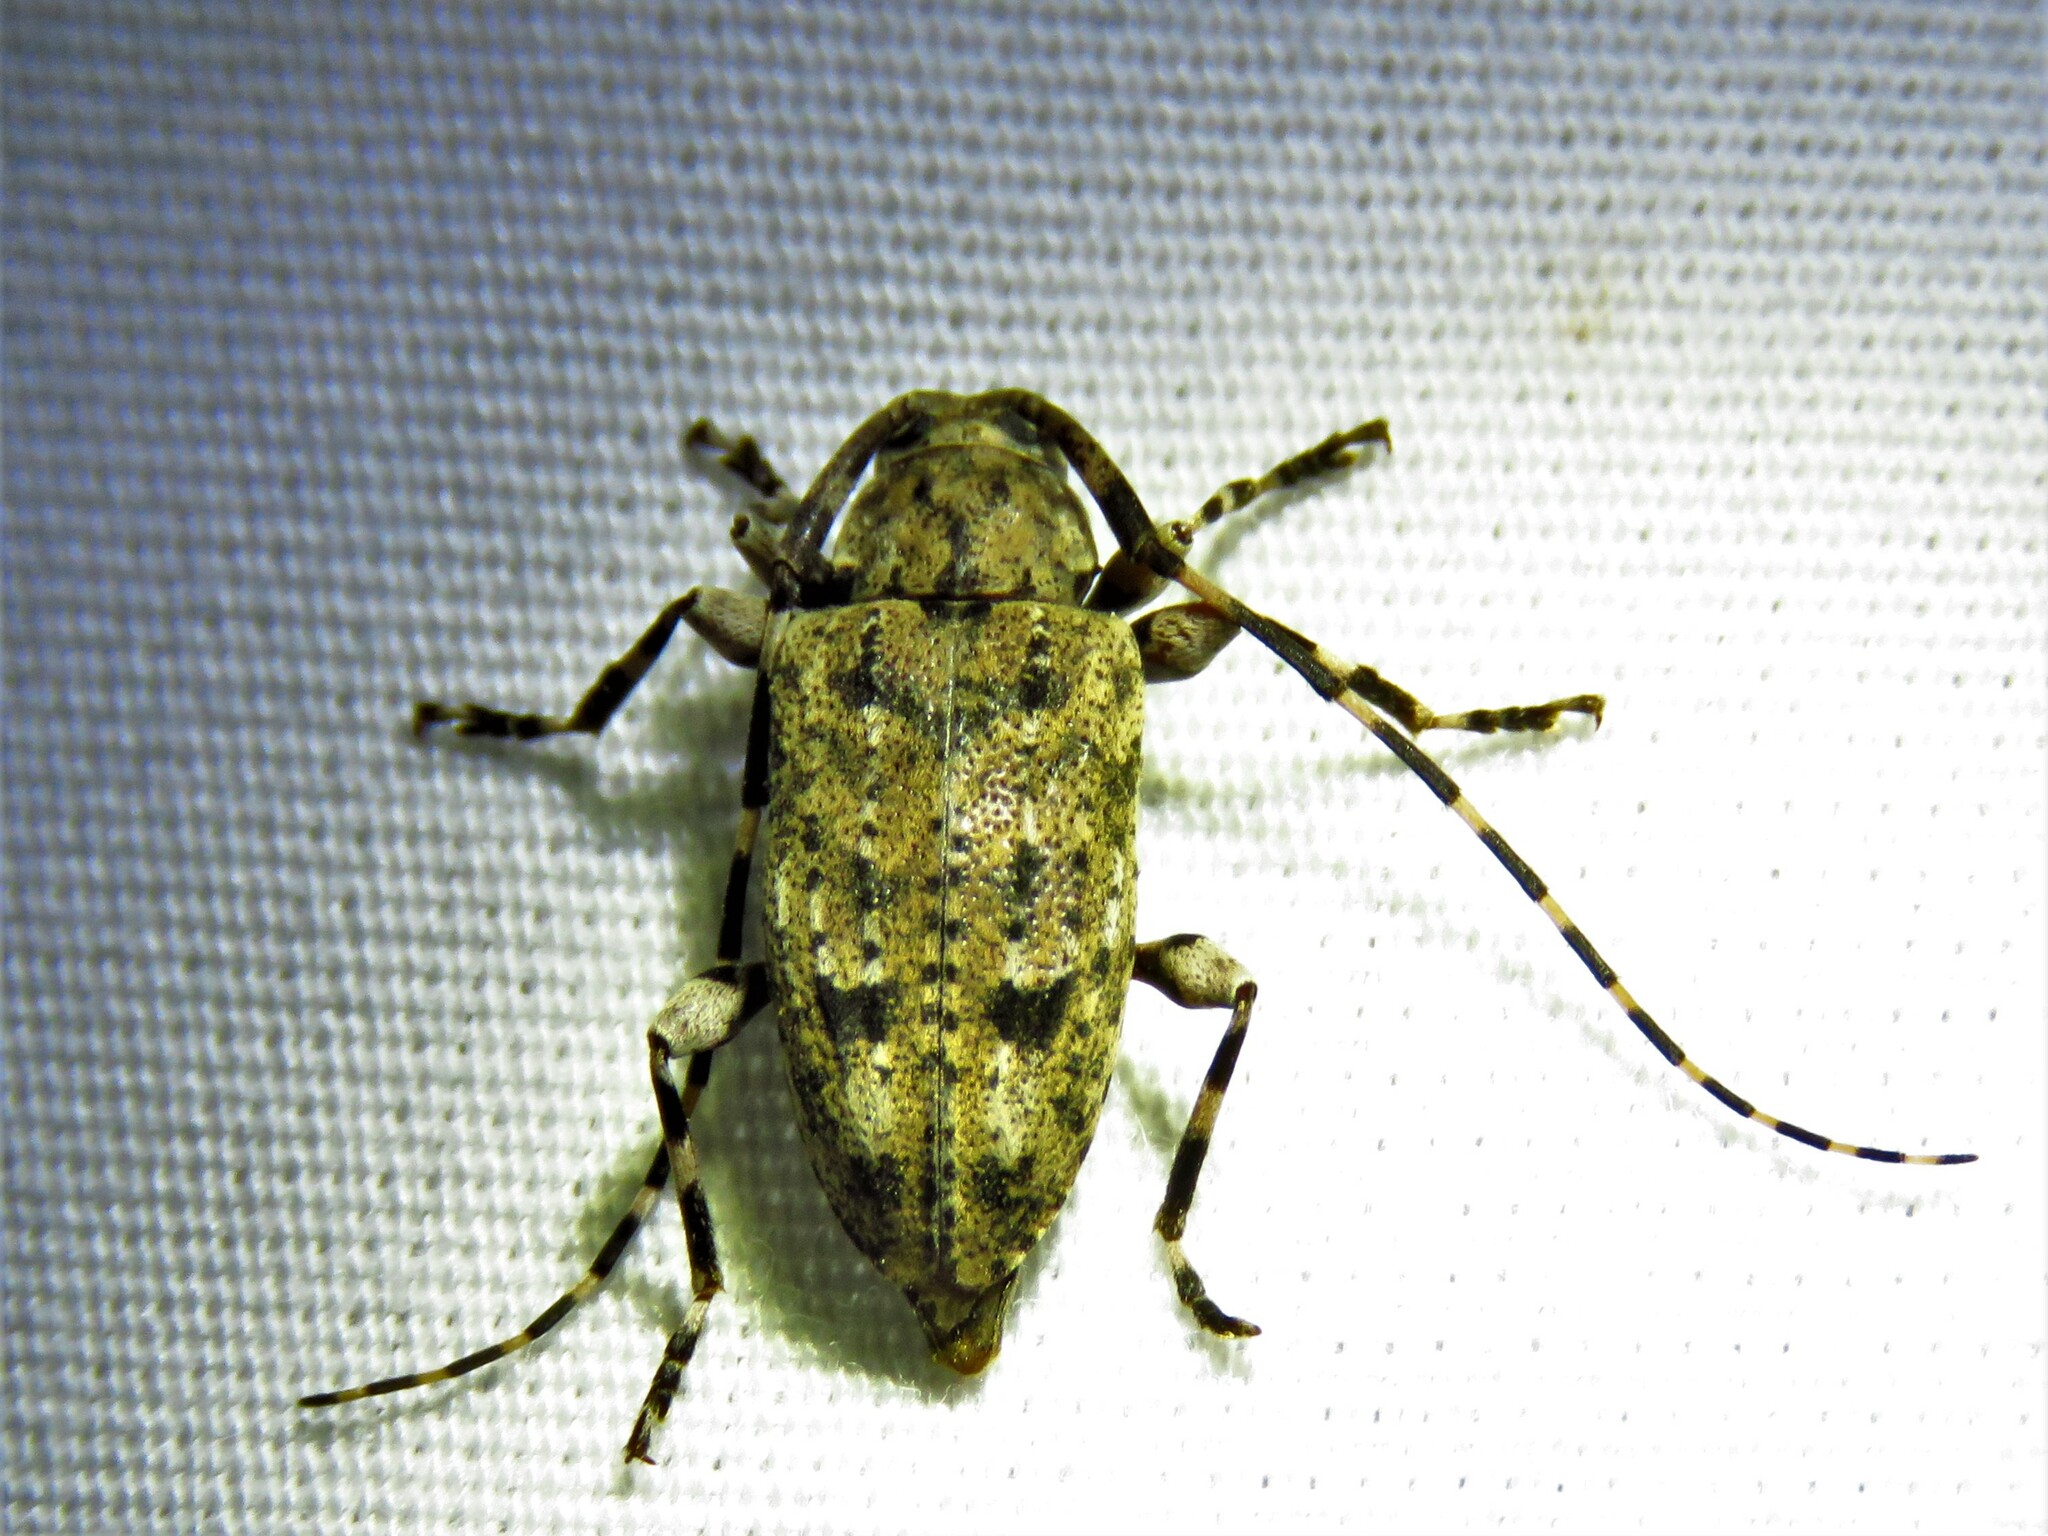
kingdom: Animalia
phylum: Arthropoda
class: Insecta
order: Coleoptera
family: Cerambycidae
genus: Astyleiopus
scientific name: Astyleiopus variegatus
